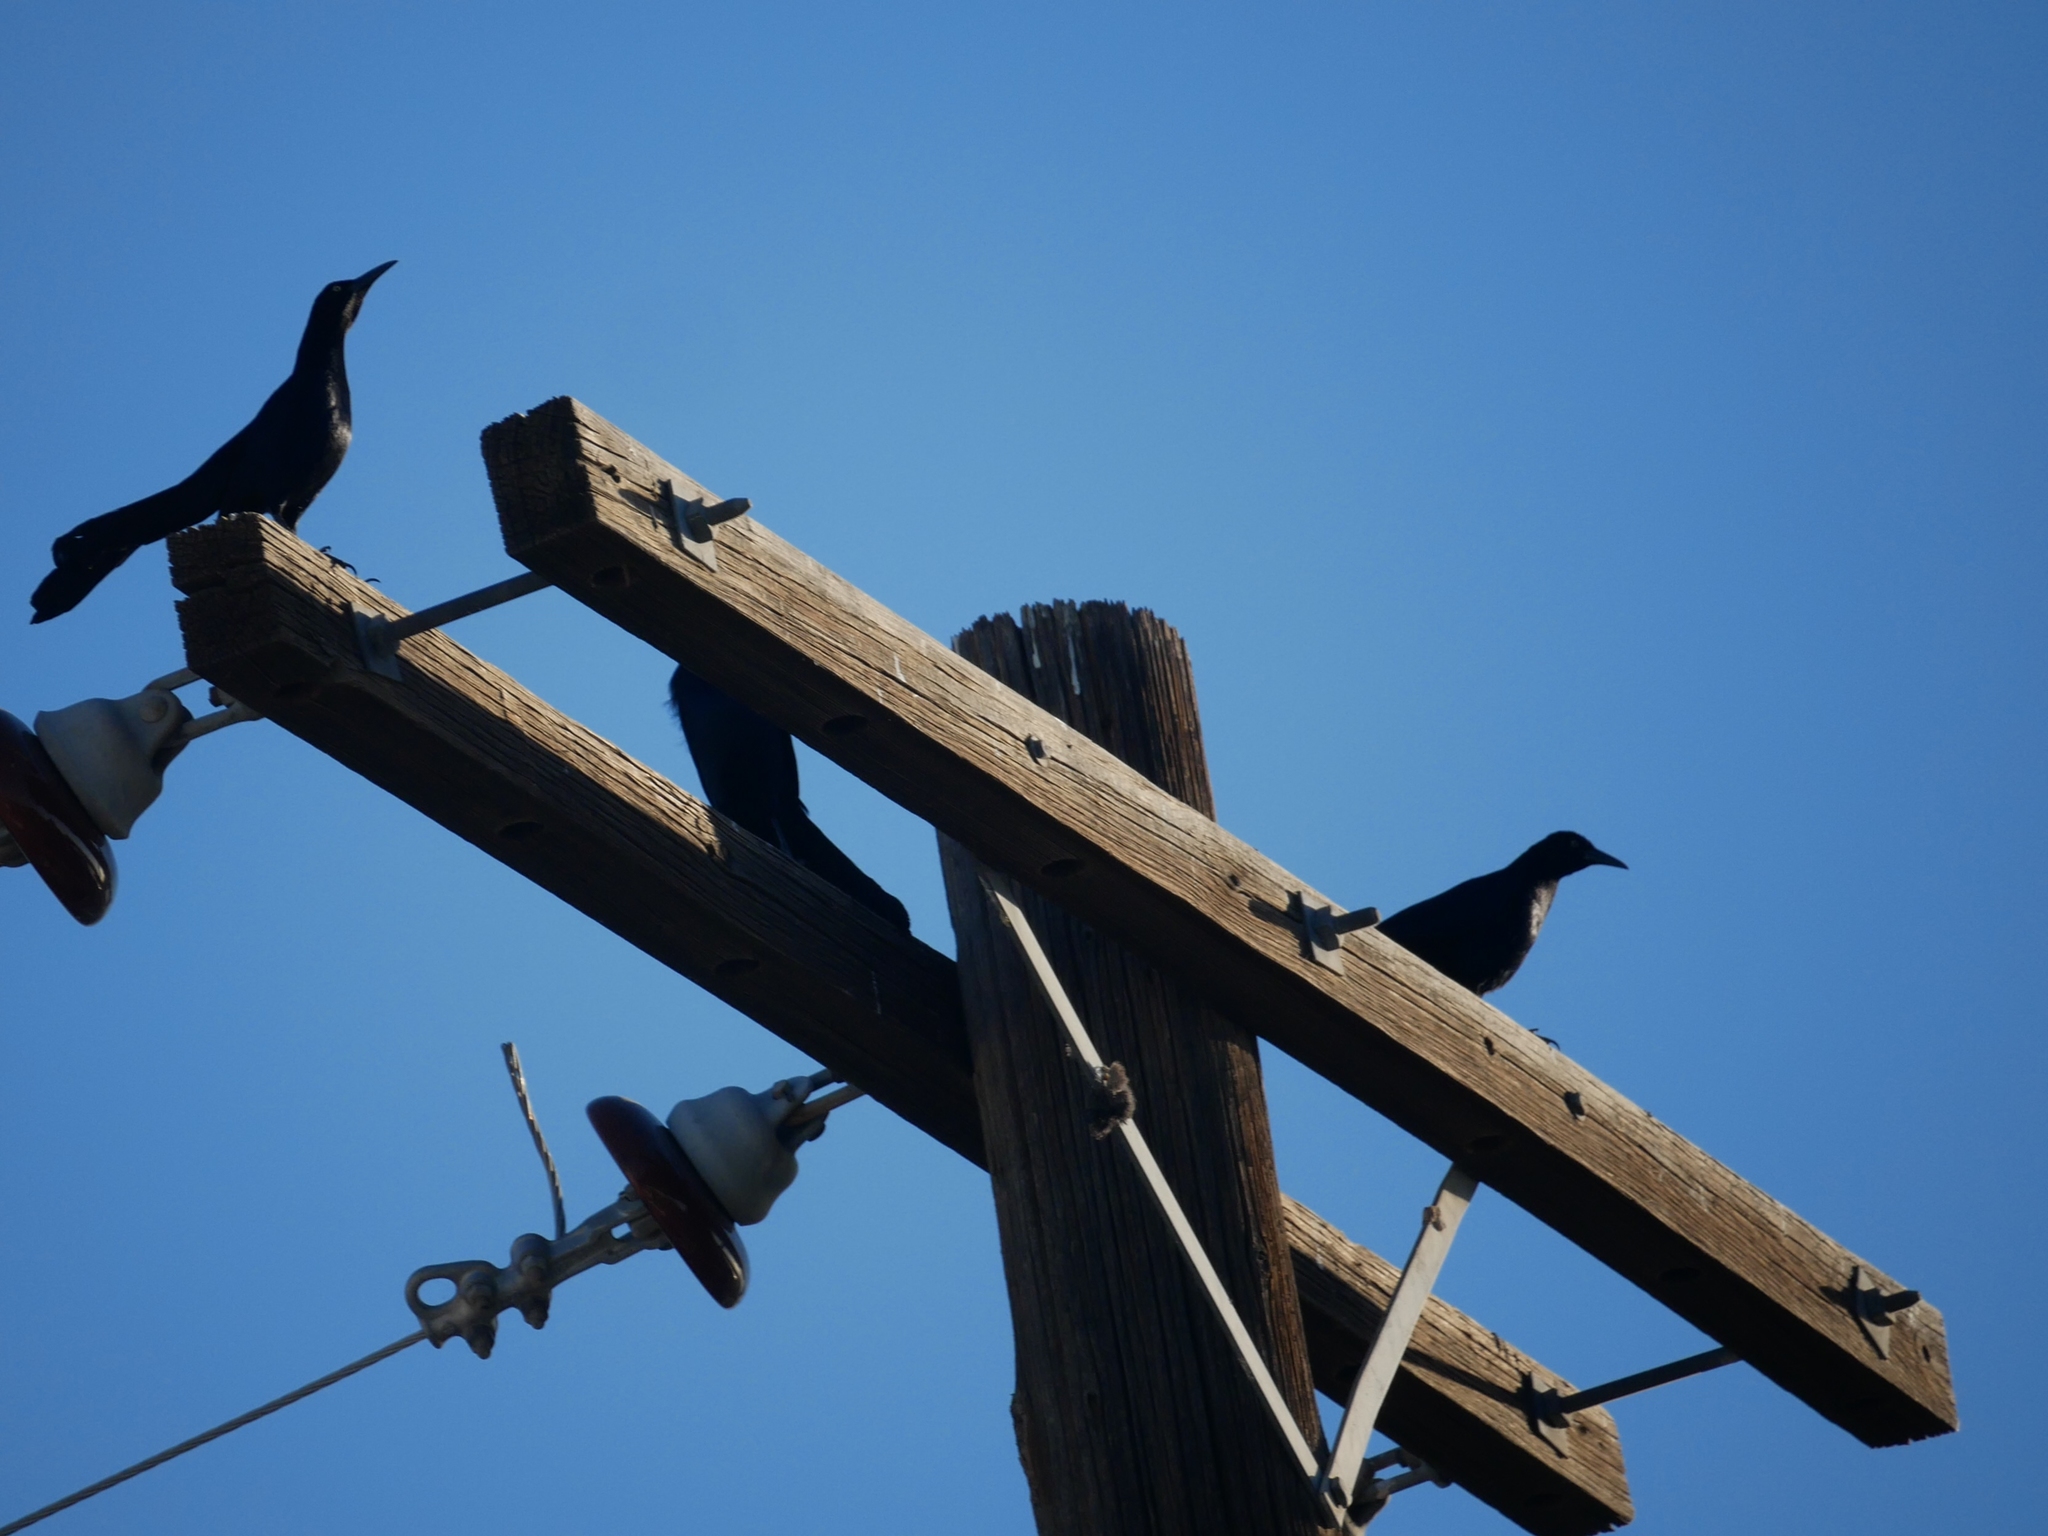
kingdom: Animalia
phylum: Chordata
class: Aves
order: Passeriformes
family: Icteridae
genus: Quiscalus
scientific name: Quiscalus mexicanus
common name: Great-tailed grackle
